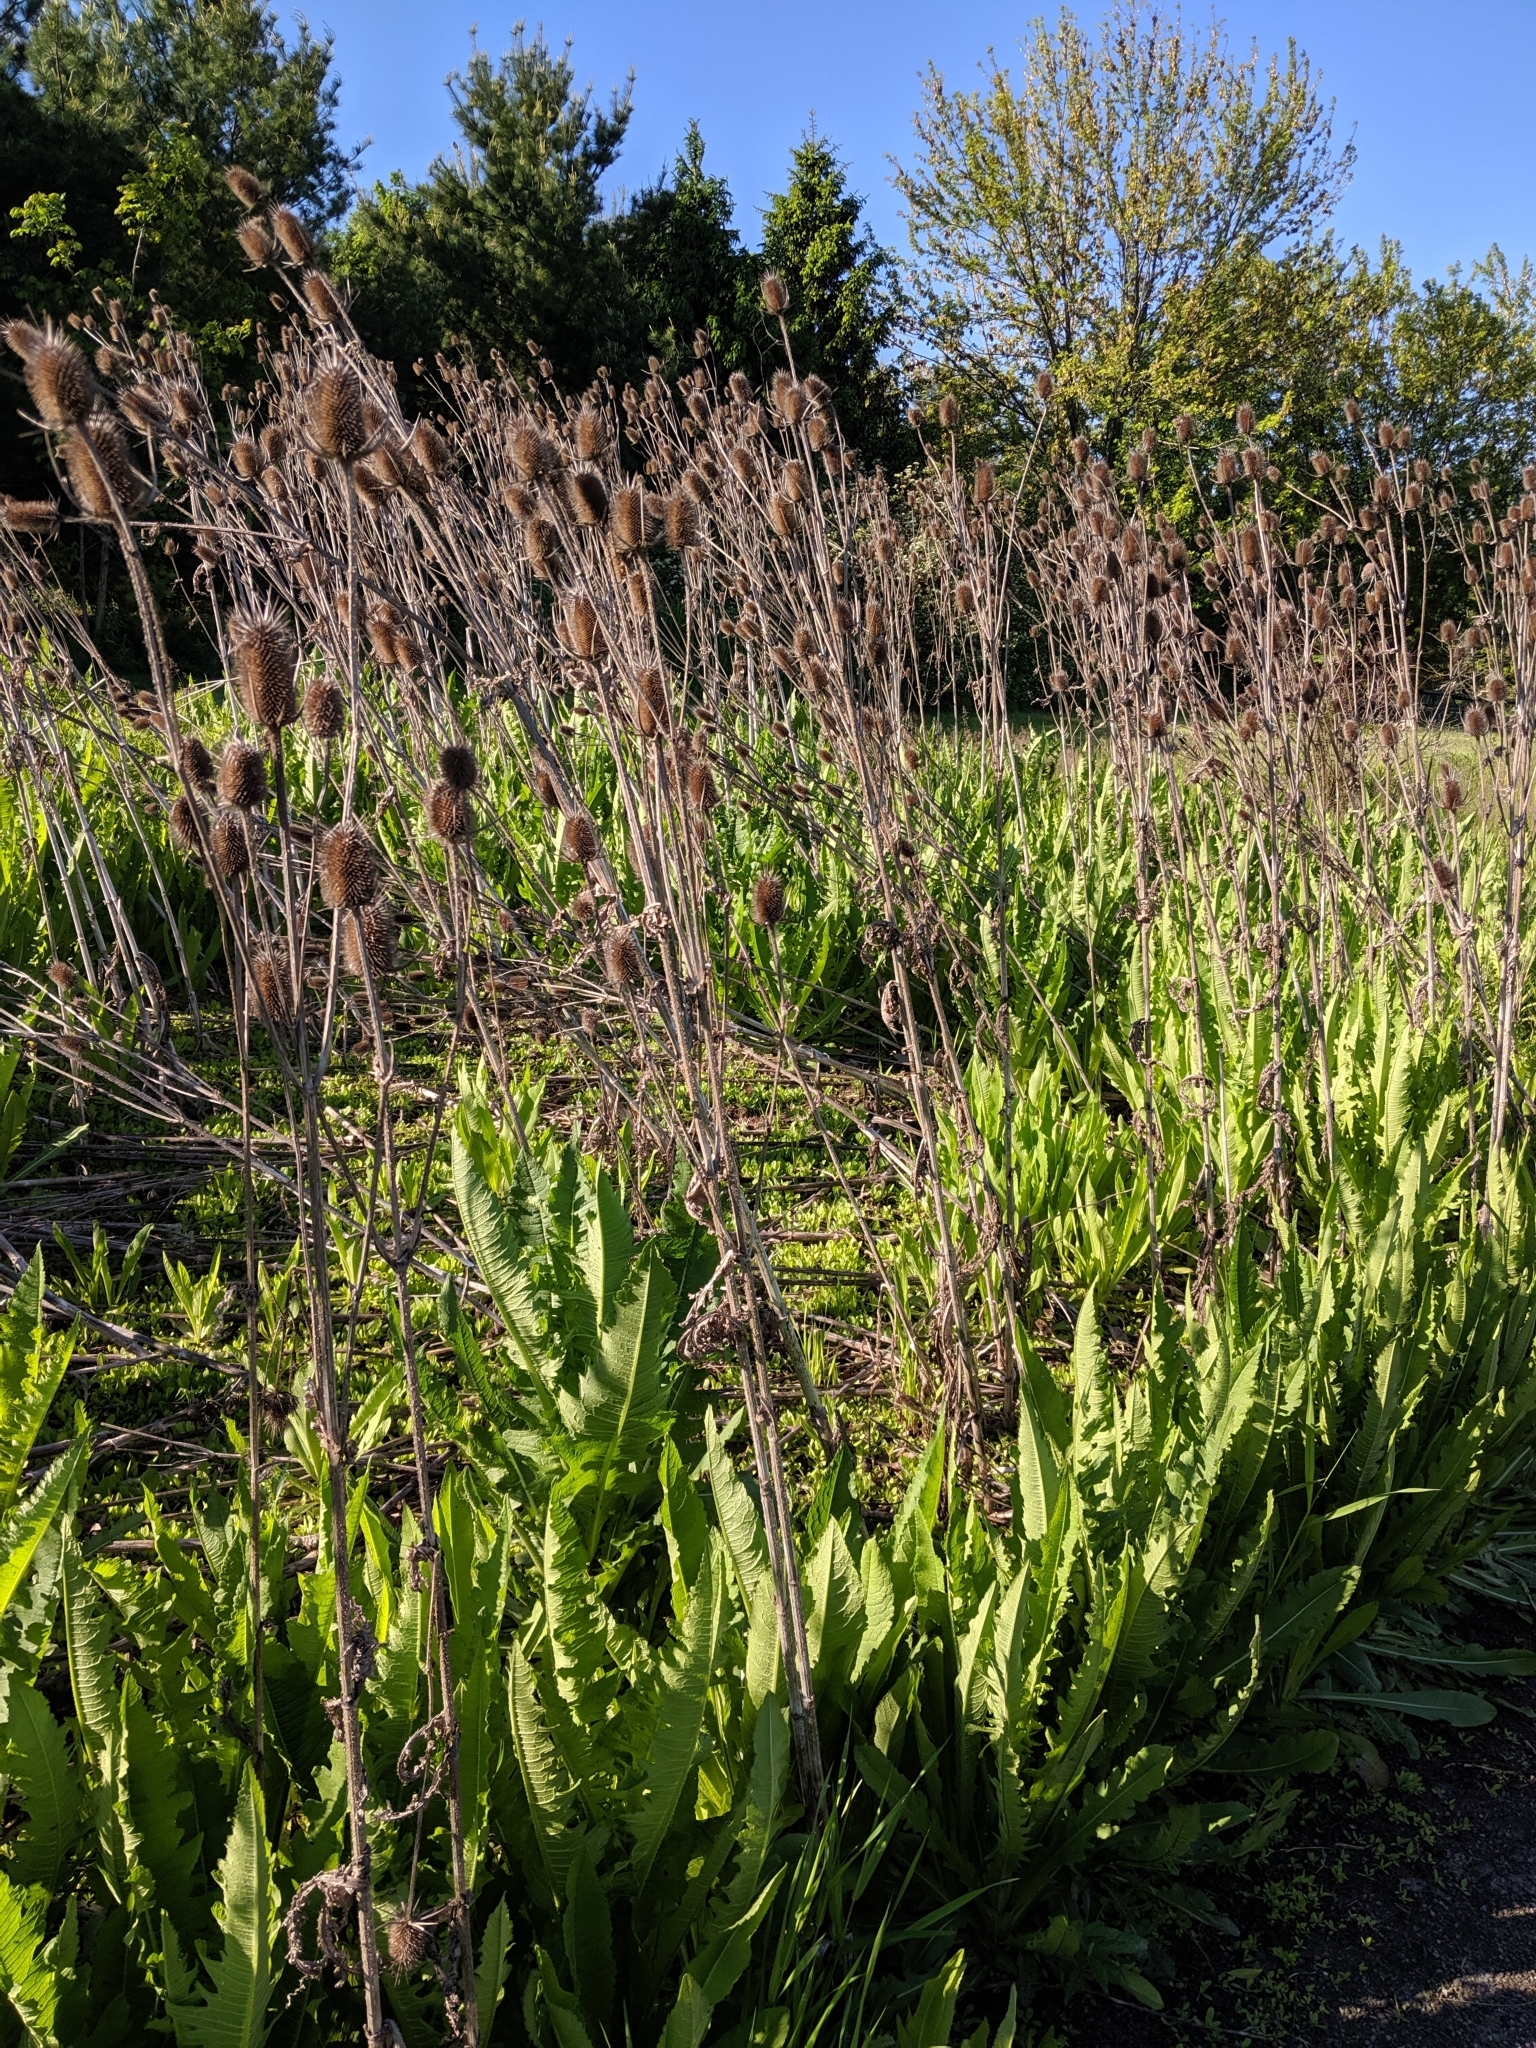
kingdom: Plantae
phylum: Tracheophyta
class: Magnoliopsida
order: Dipsacales
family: Caprifoliaceae
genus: Dipsacus
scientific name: Dipsacus laciniatus
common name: Cut-leaved teasel
